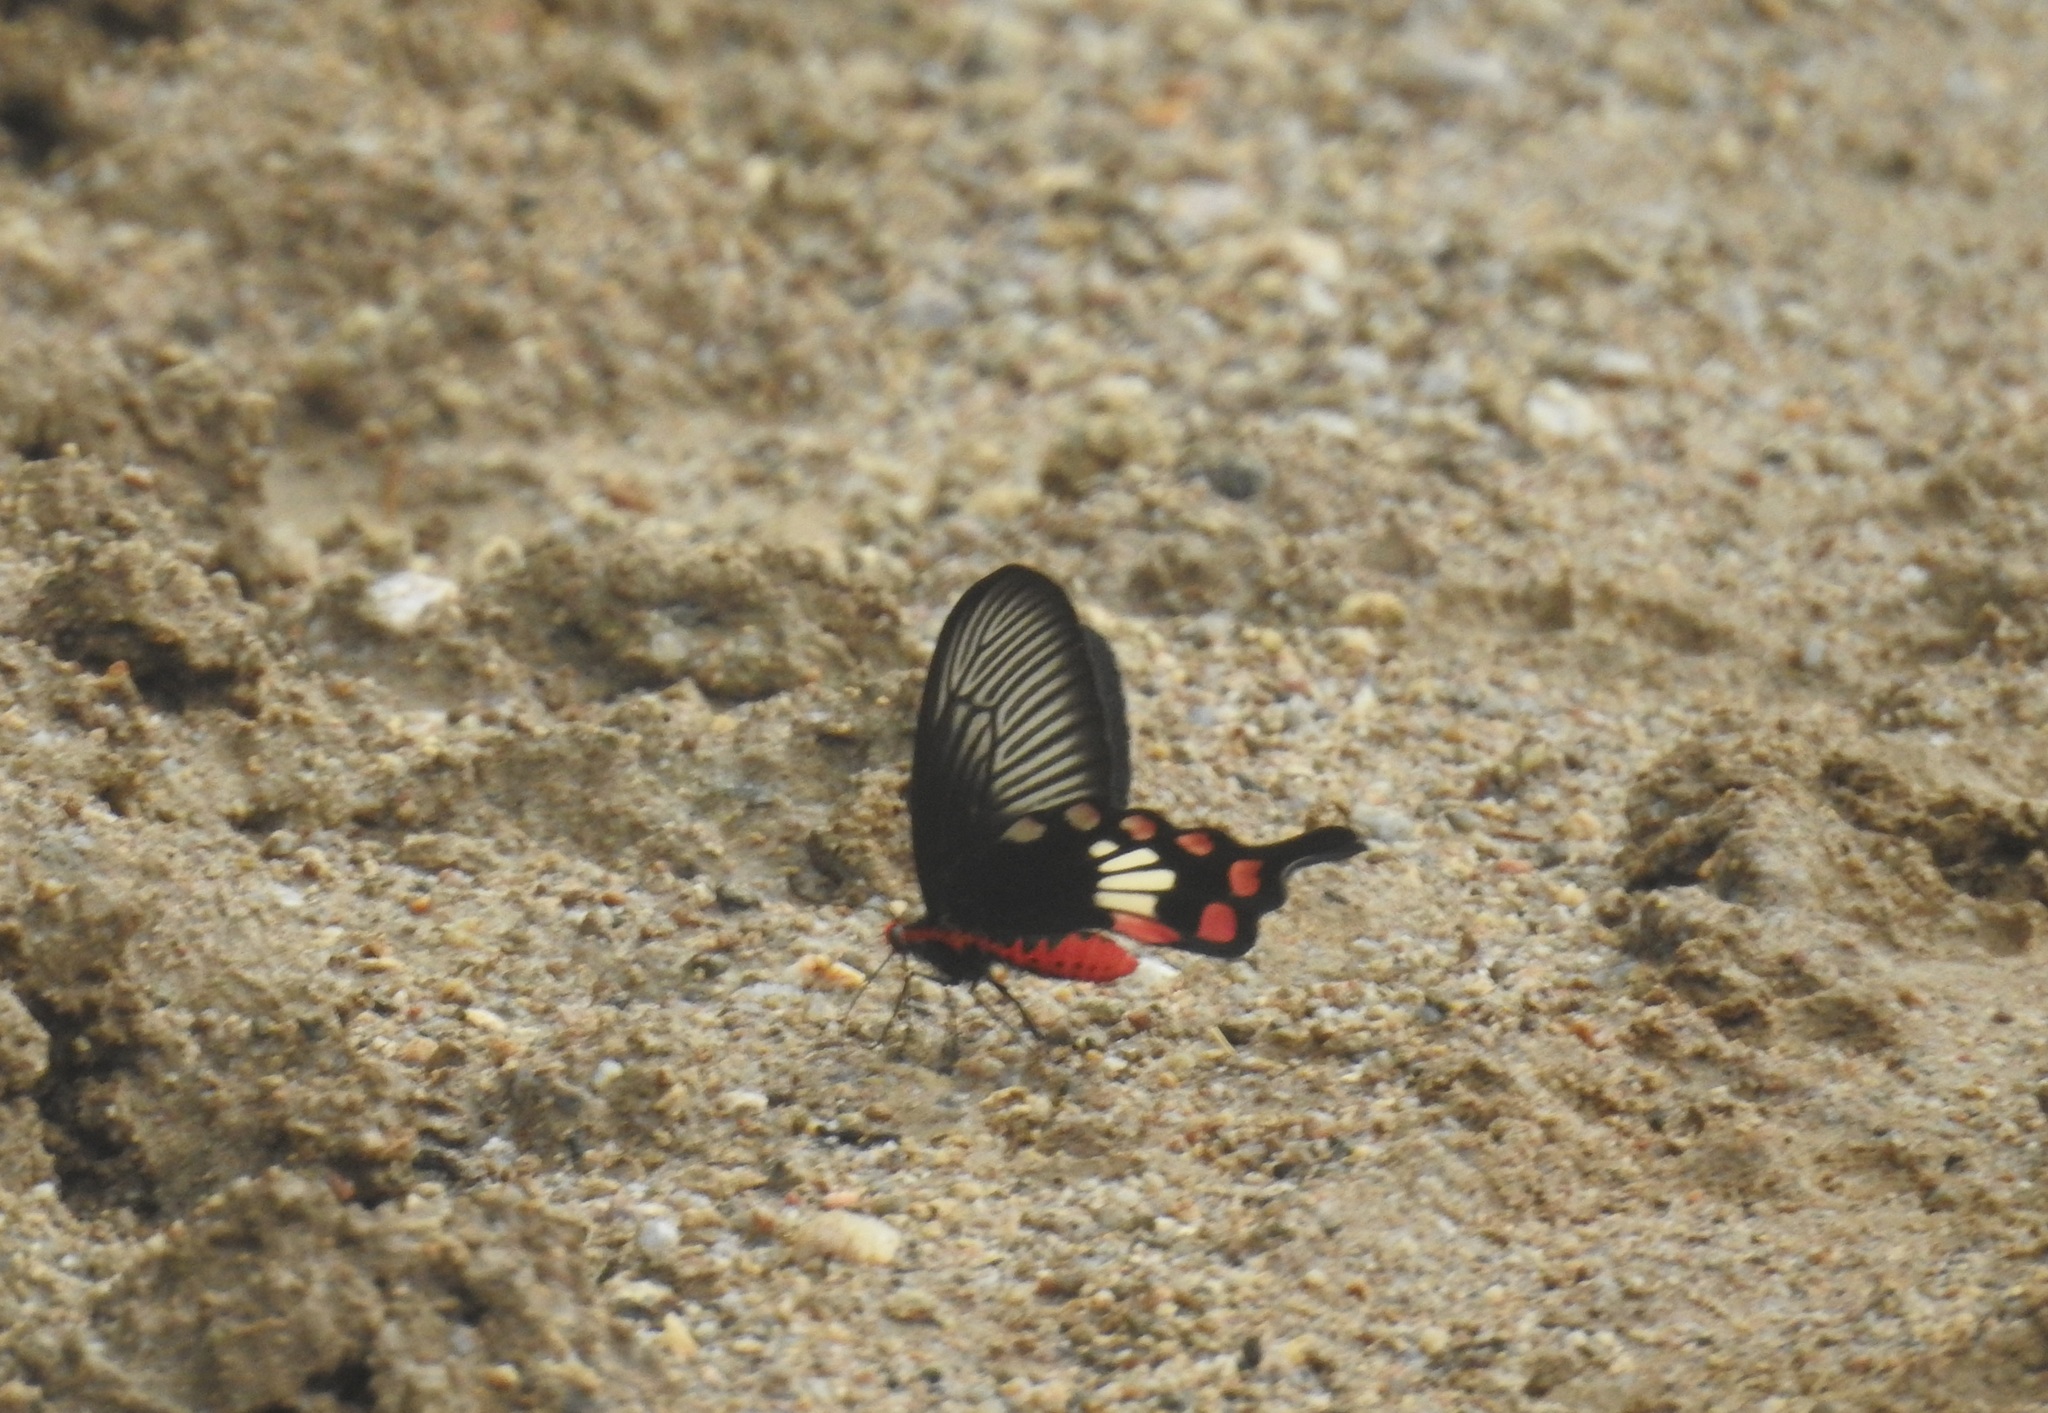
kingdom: Animalia
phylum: Arthropoda
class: Insecta
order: Lepidoptera
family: Papilionidae
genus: Pachliopta
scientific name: Pachliopta aristolochiae
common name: Common rose
